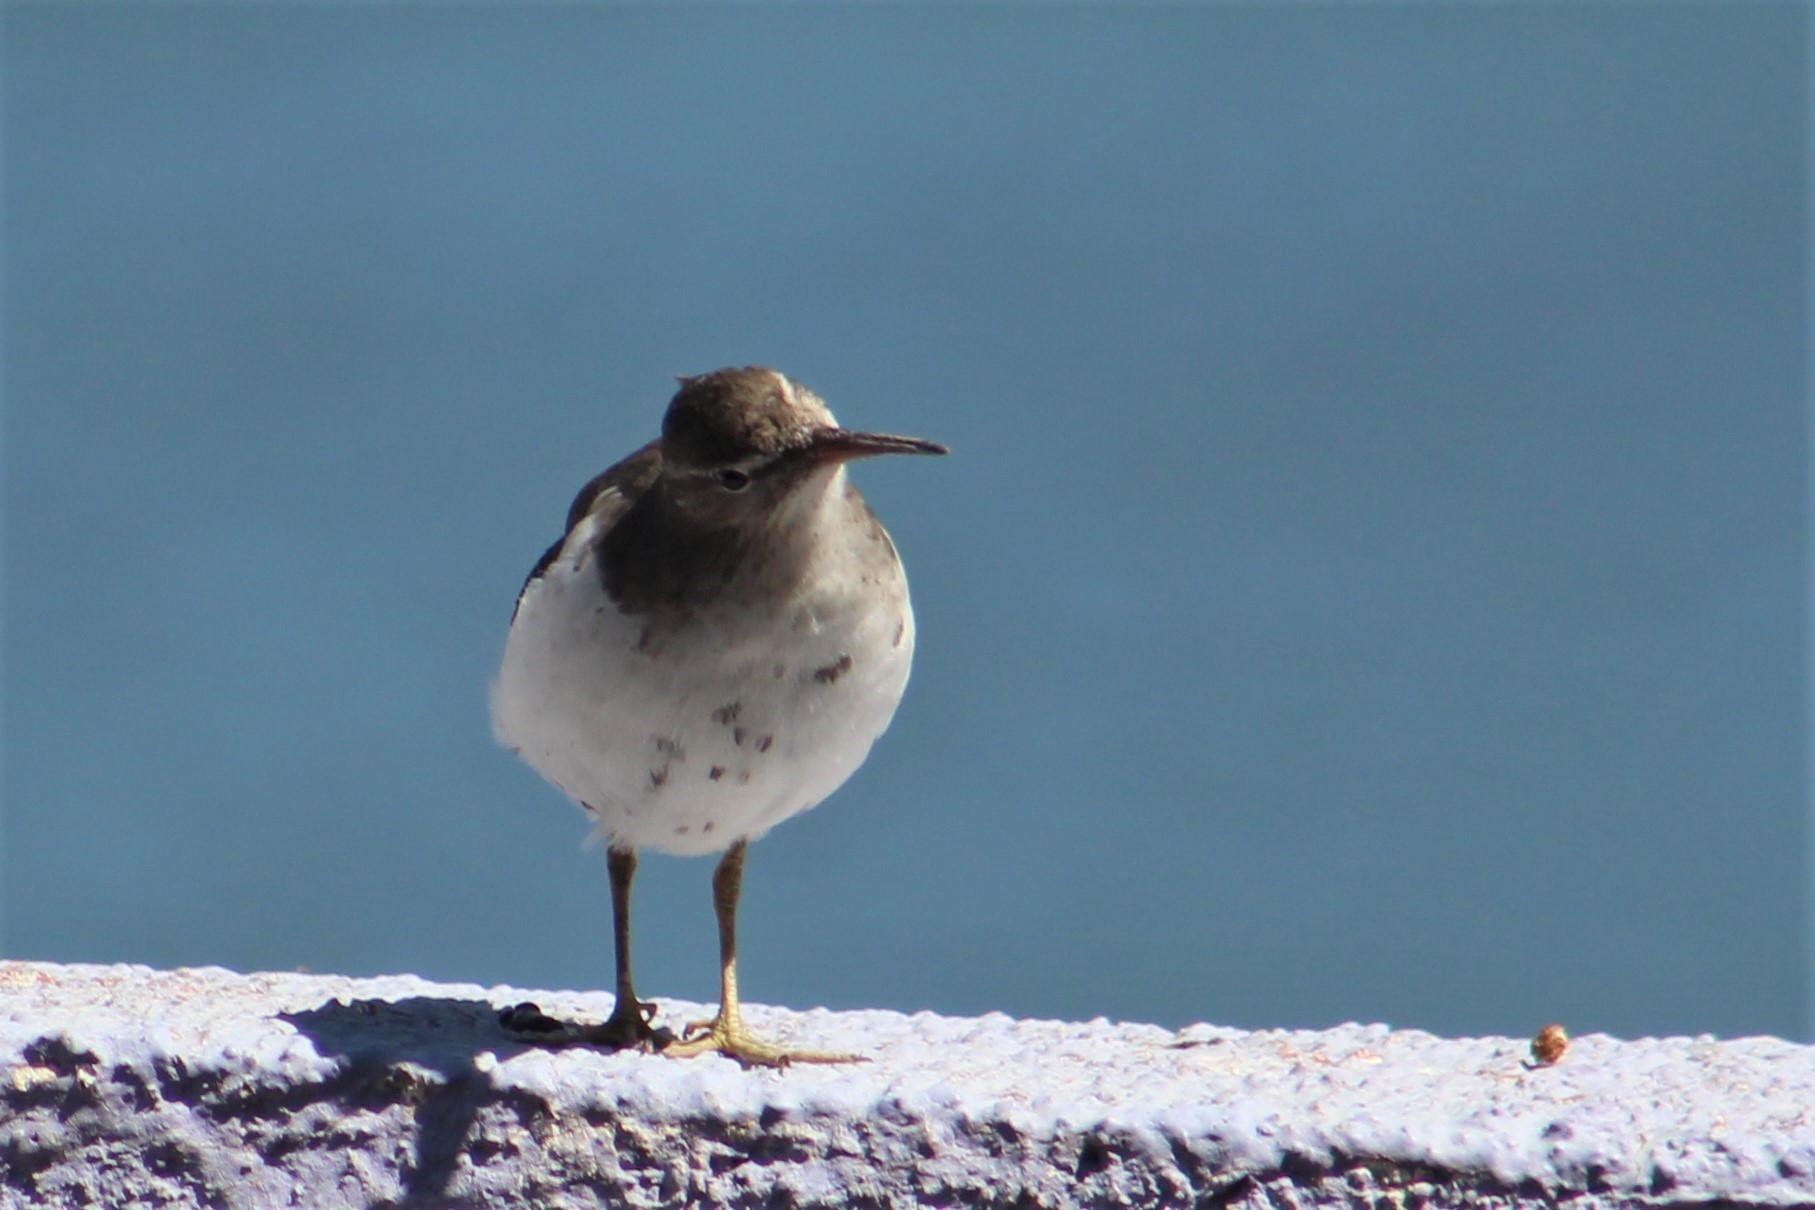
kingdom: Animalia
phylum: Chordata
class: Aves
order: Charadriiformes
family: Scolopacidae
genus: Actitis
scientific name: Actitis macularius
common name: Spotted sandpiper
